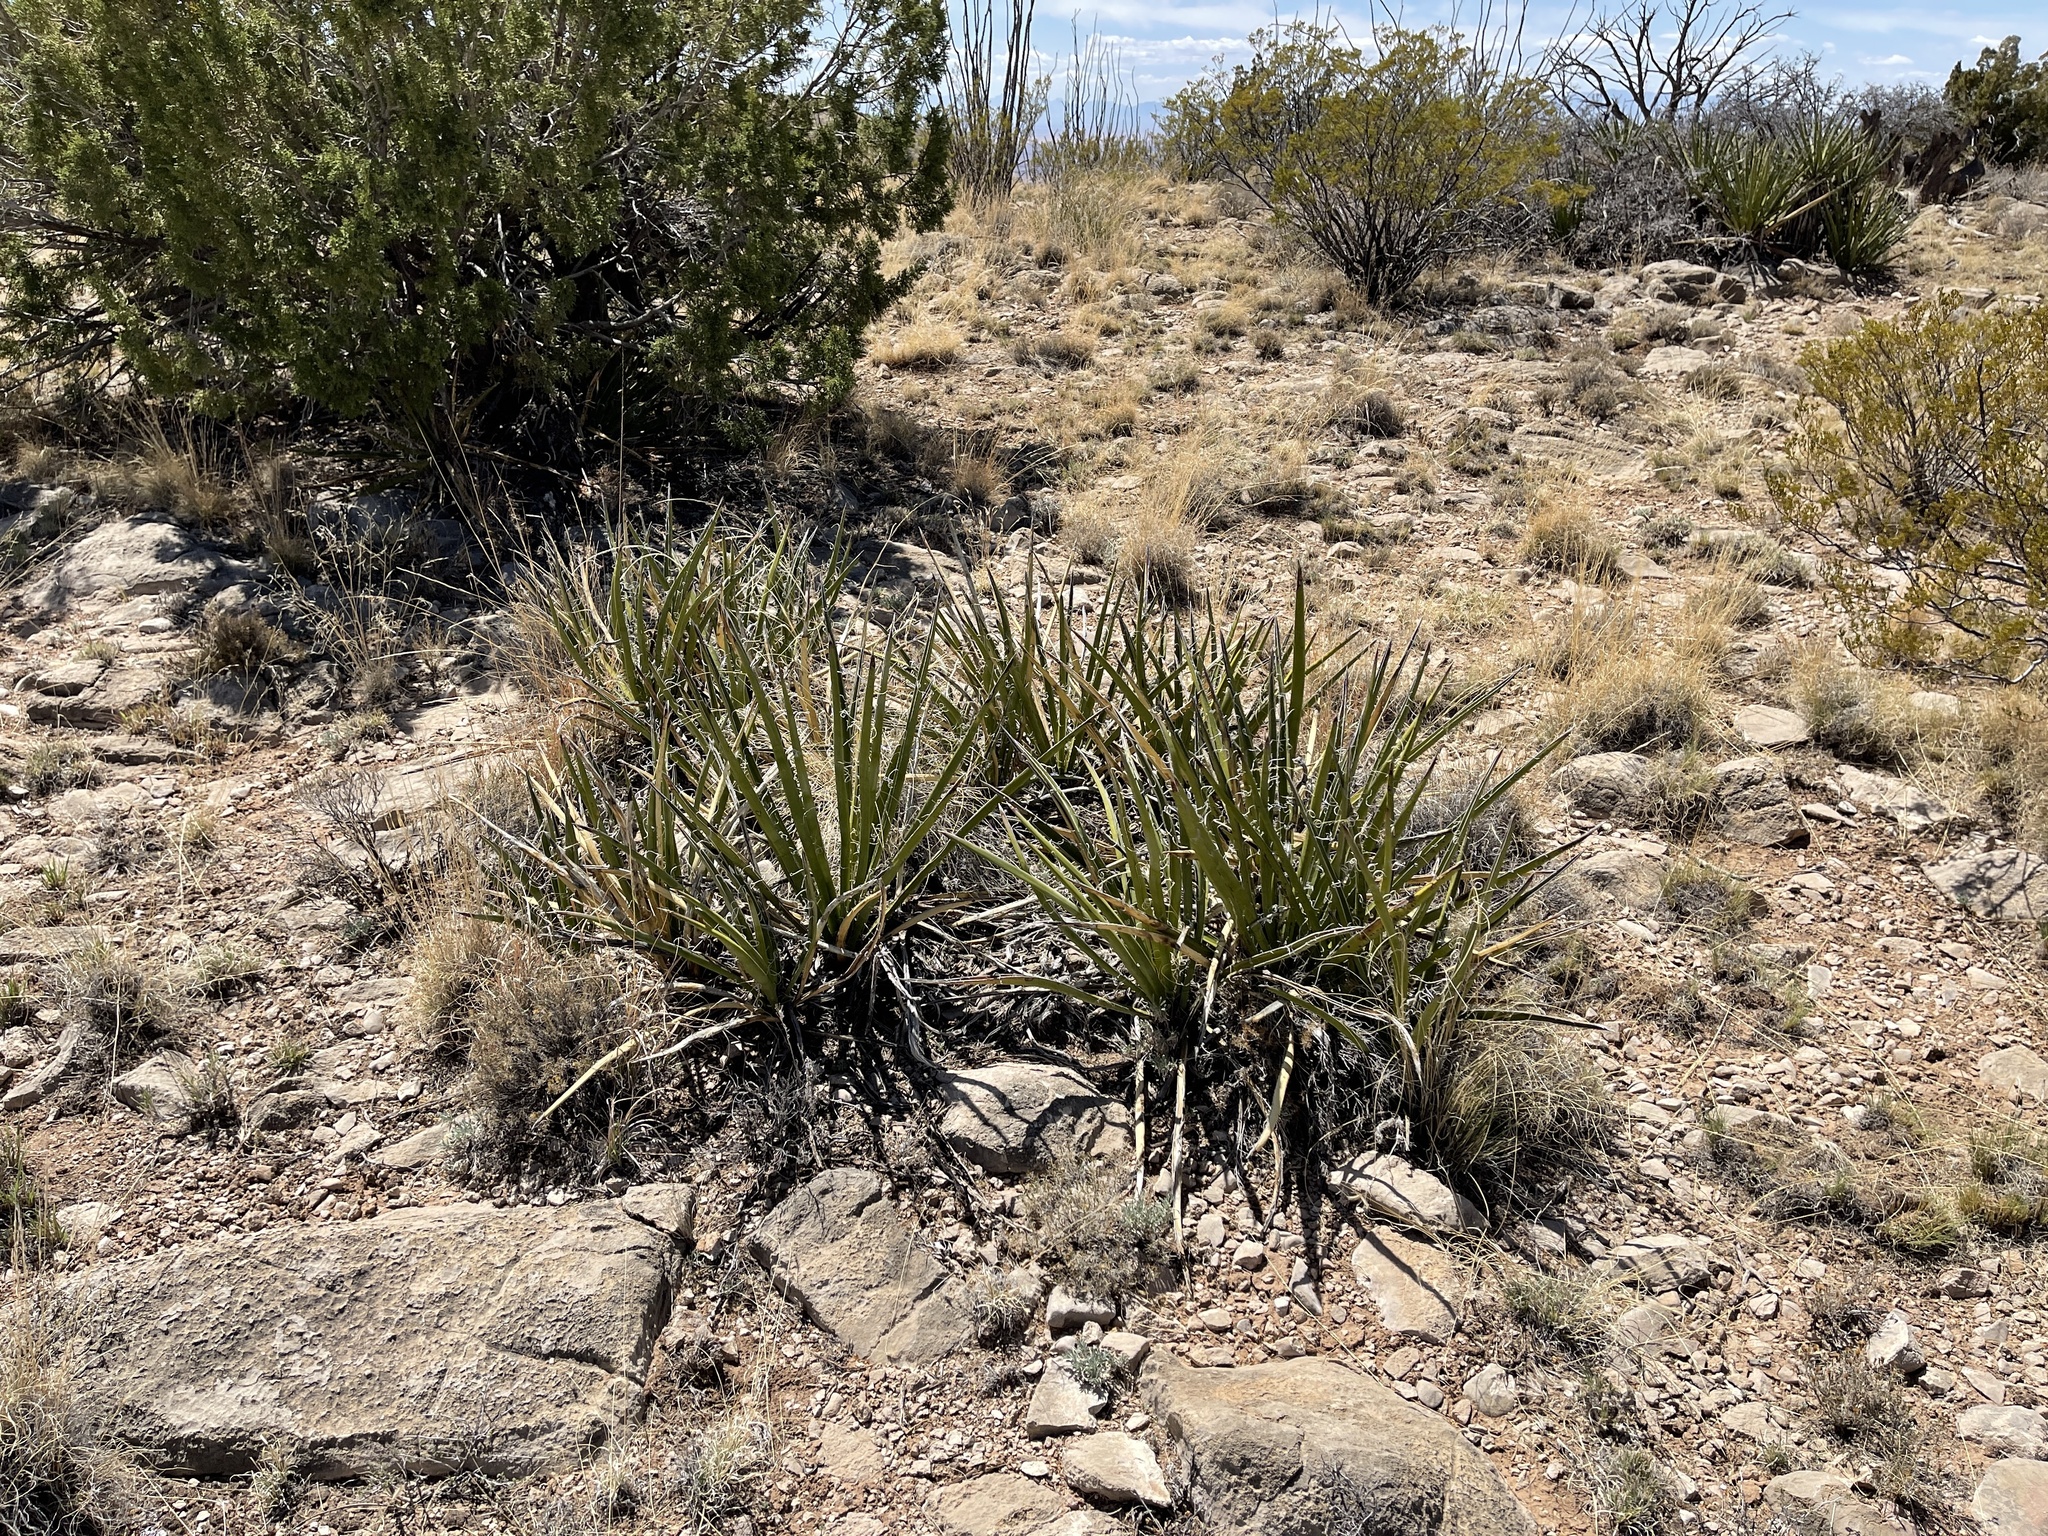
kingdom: Plantae
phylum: Tracheophyta
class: Liliopsida
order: Asparagales
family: Asparagaceae
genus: Yucca
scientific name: Yucca baccata
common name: Banana yucca
